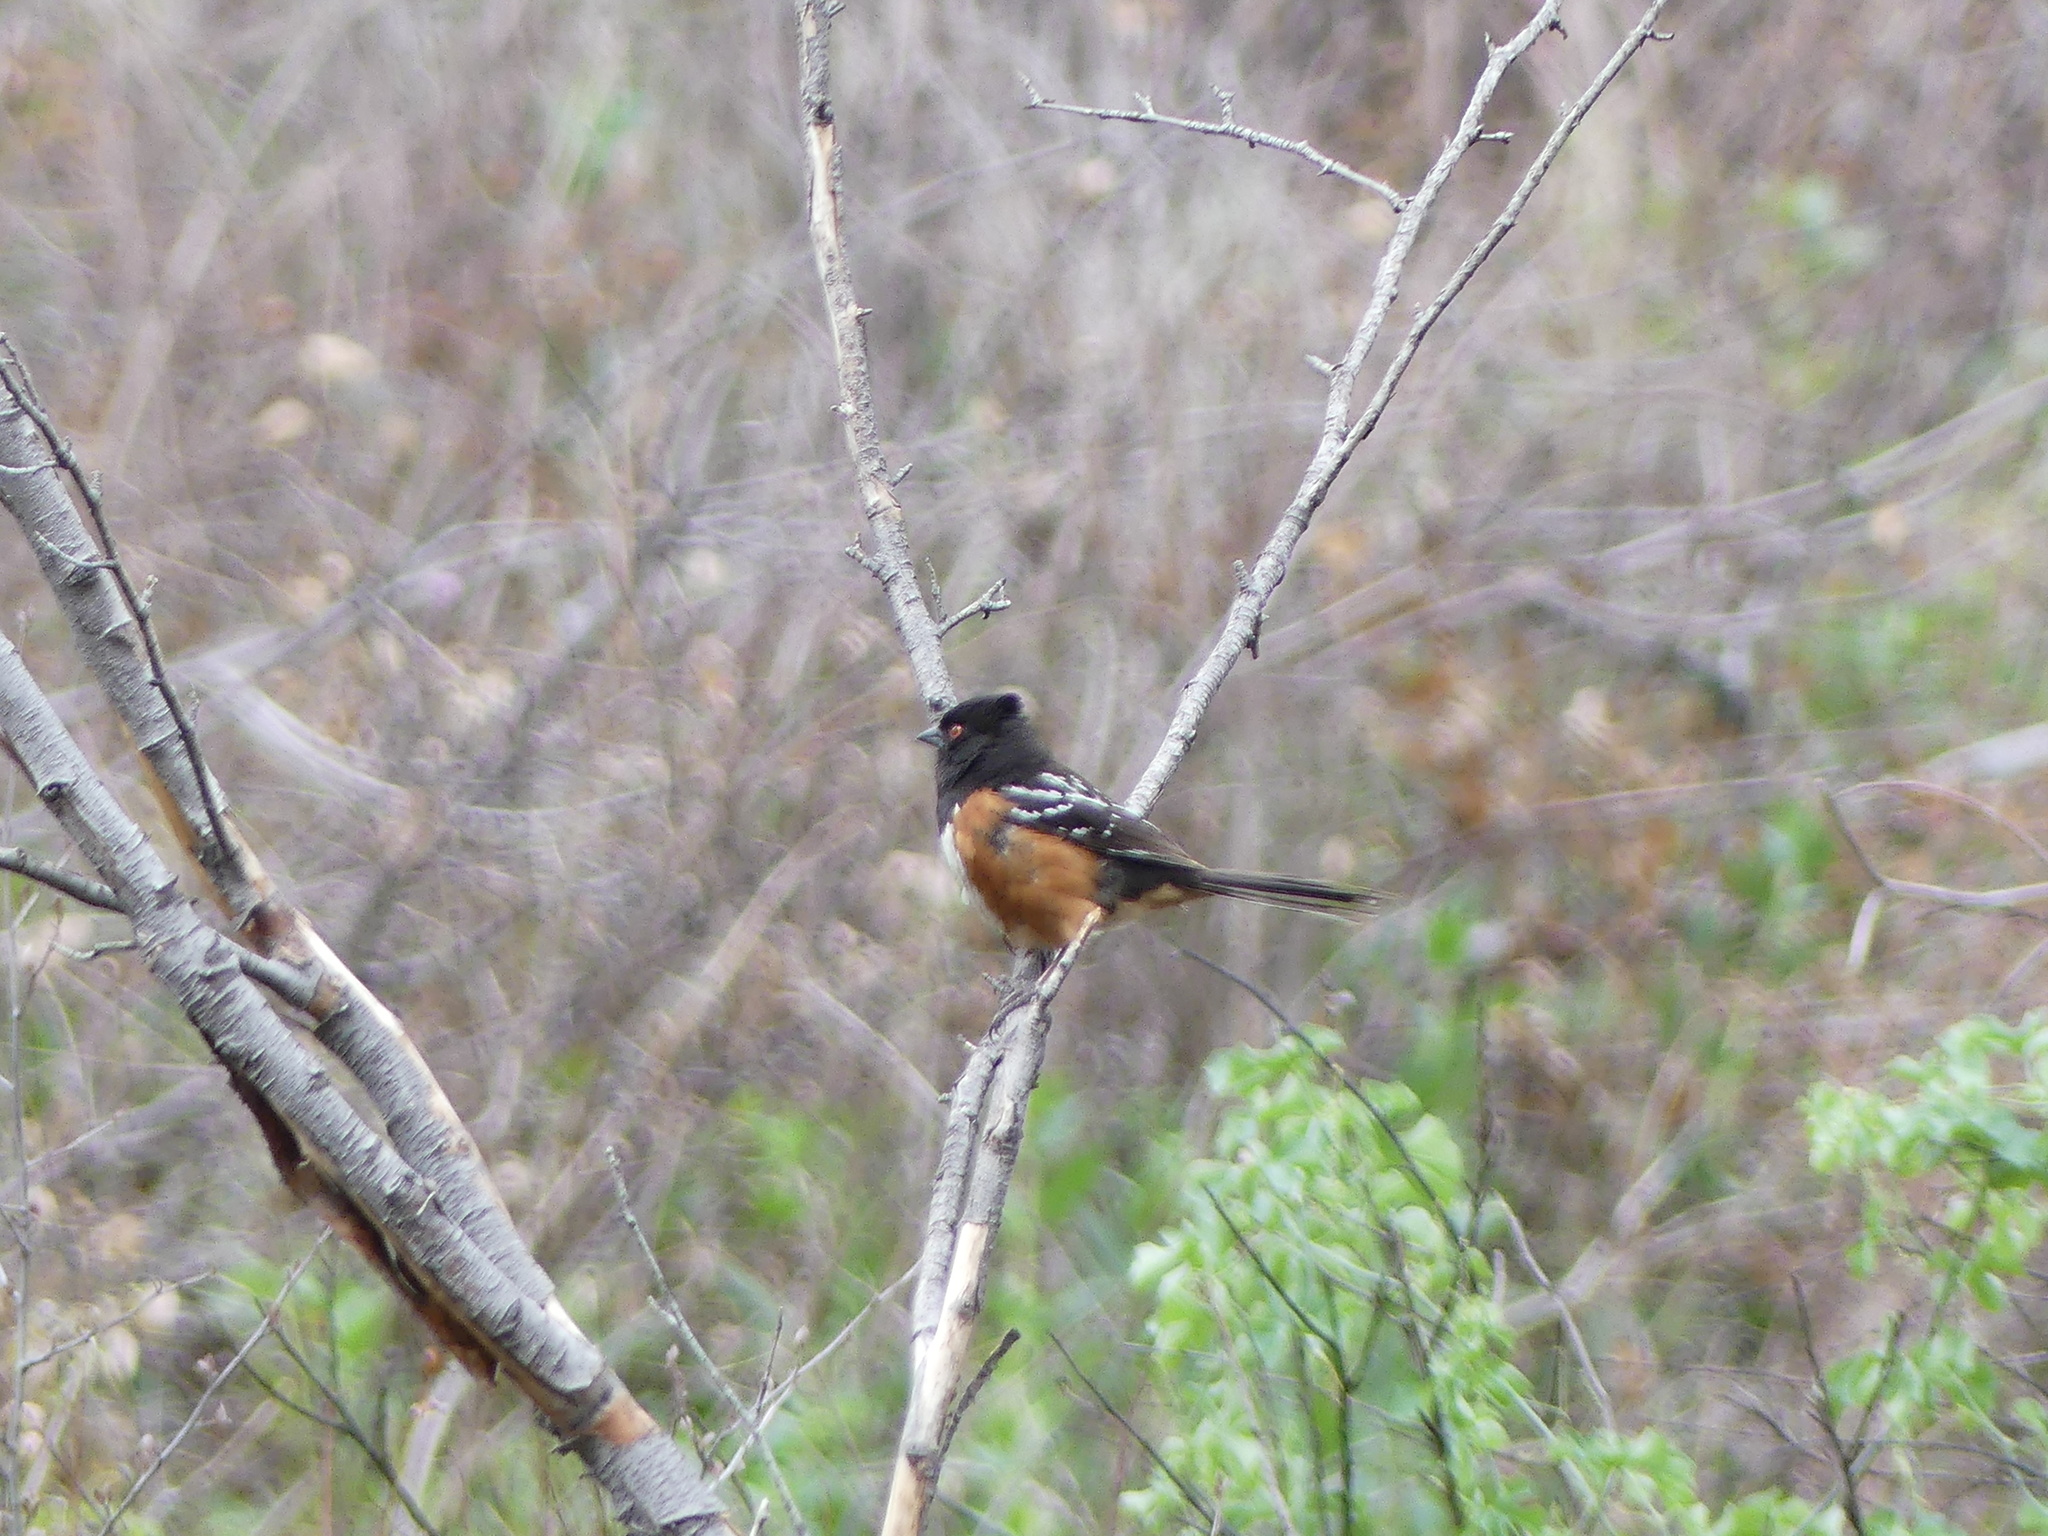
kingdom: Animalia
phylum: Chordata
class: Aves
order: Passeriformes
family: Passerellidae
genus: Pipilo
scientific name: Pipilo maculatus
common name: Spotted towhee
